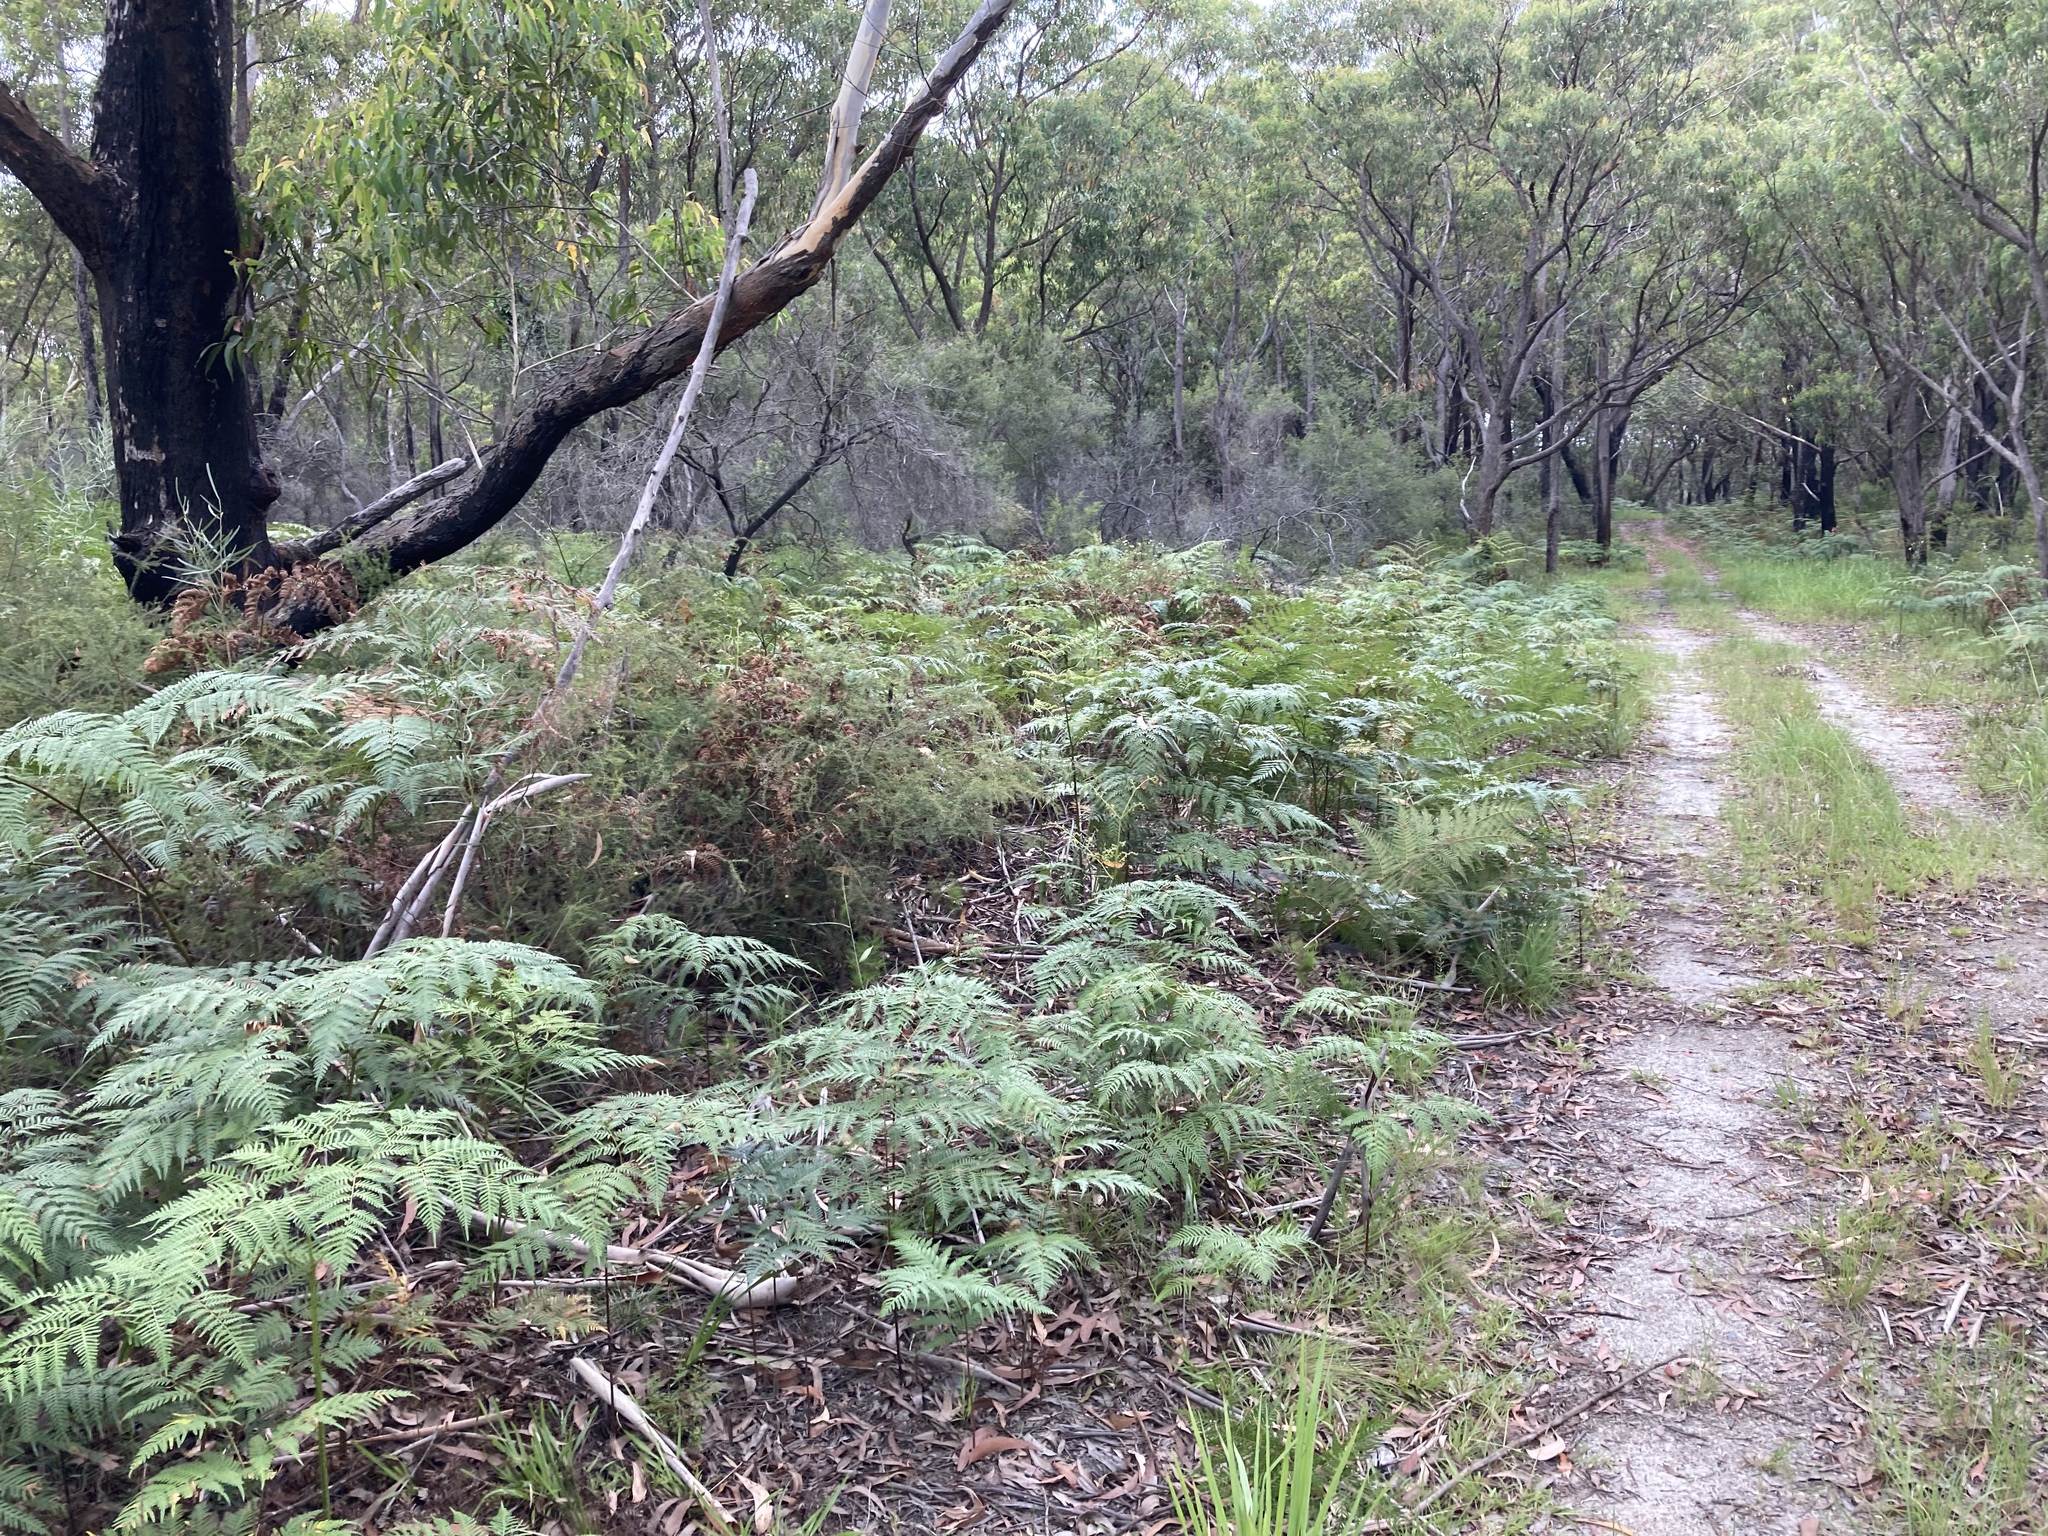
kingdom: Plantae
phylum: Tracheophyta
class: Polypodiopsida
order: Polypodiales
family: Dennstaedtiaceae
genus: Pteridium
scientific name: Pteridium esculentum
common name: Bracken fern
